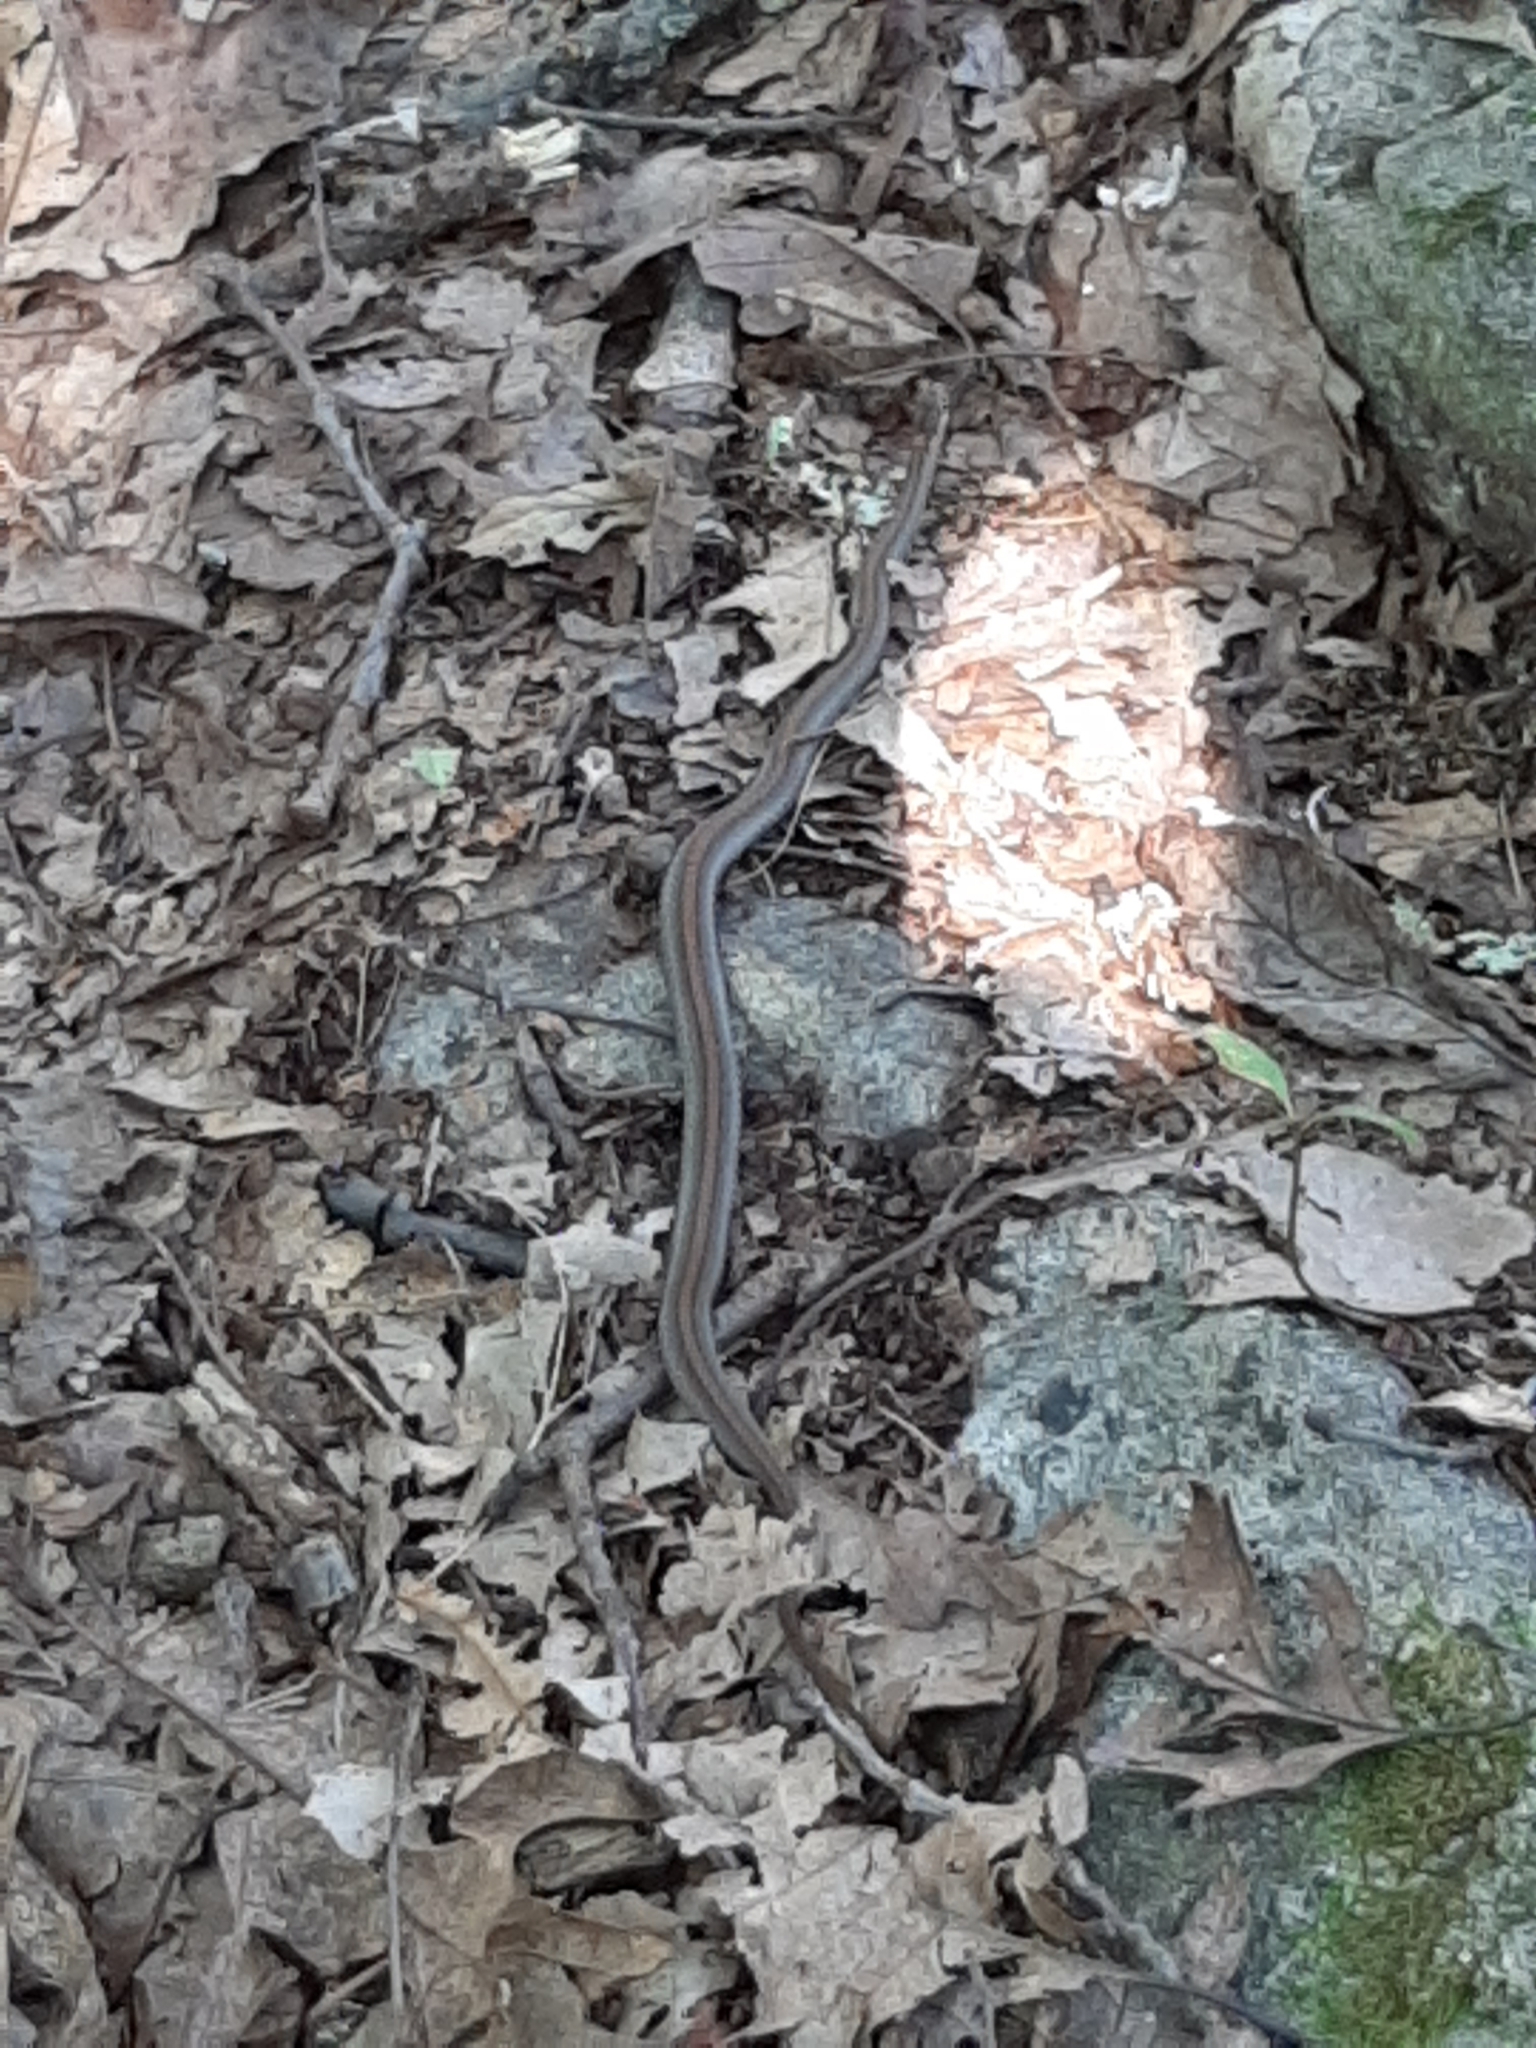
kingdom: Animalia
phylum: Chordata
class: Squamata
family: Colubridae
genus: Storeria
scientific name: Storeria occipitomaculata
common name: Redbelly snake
